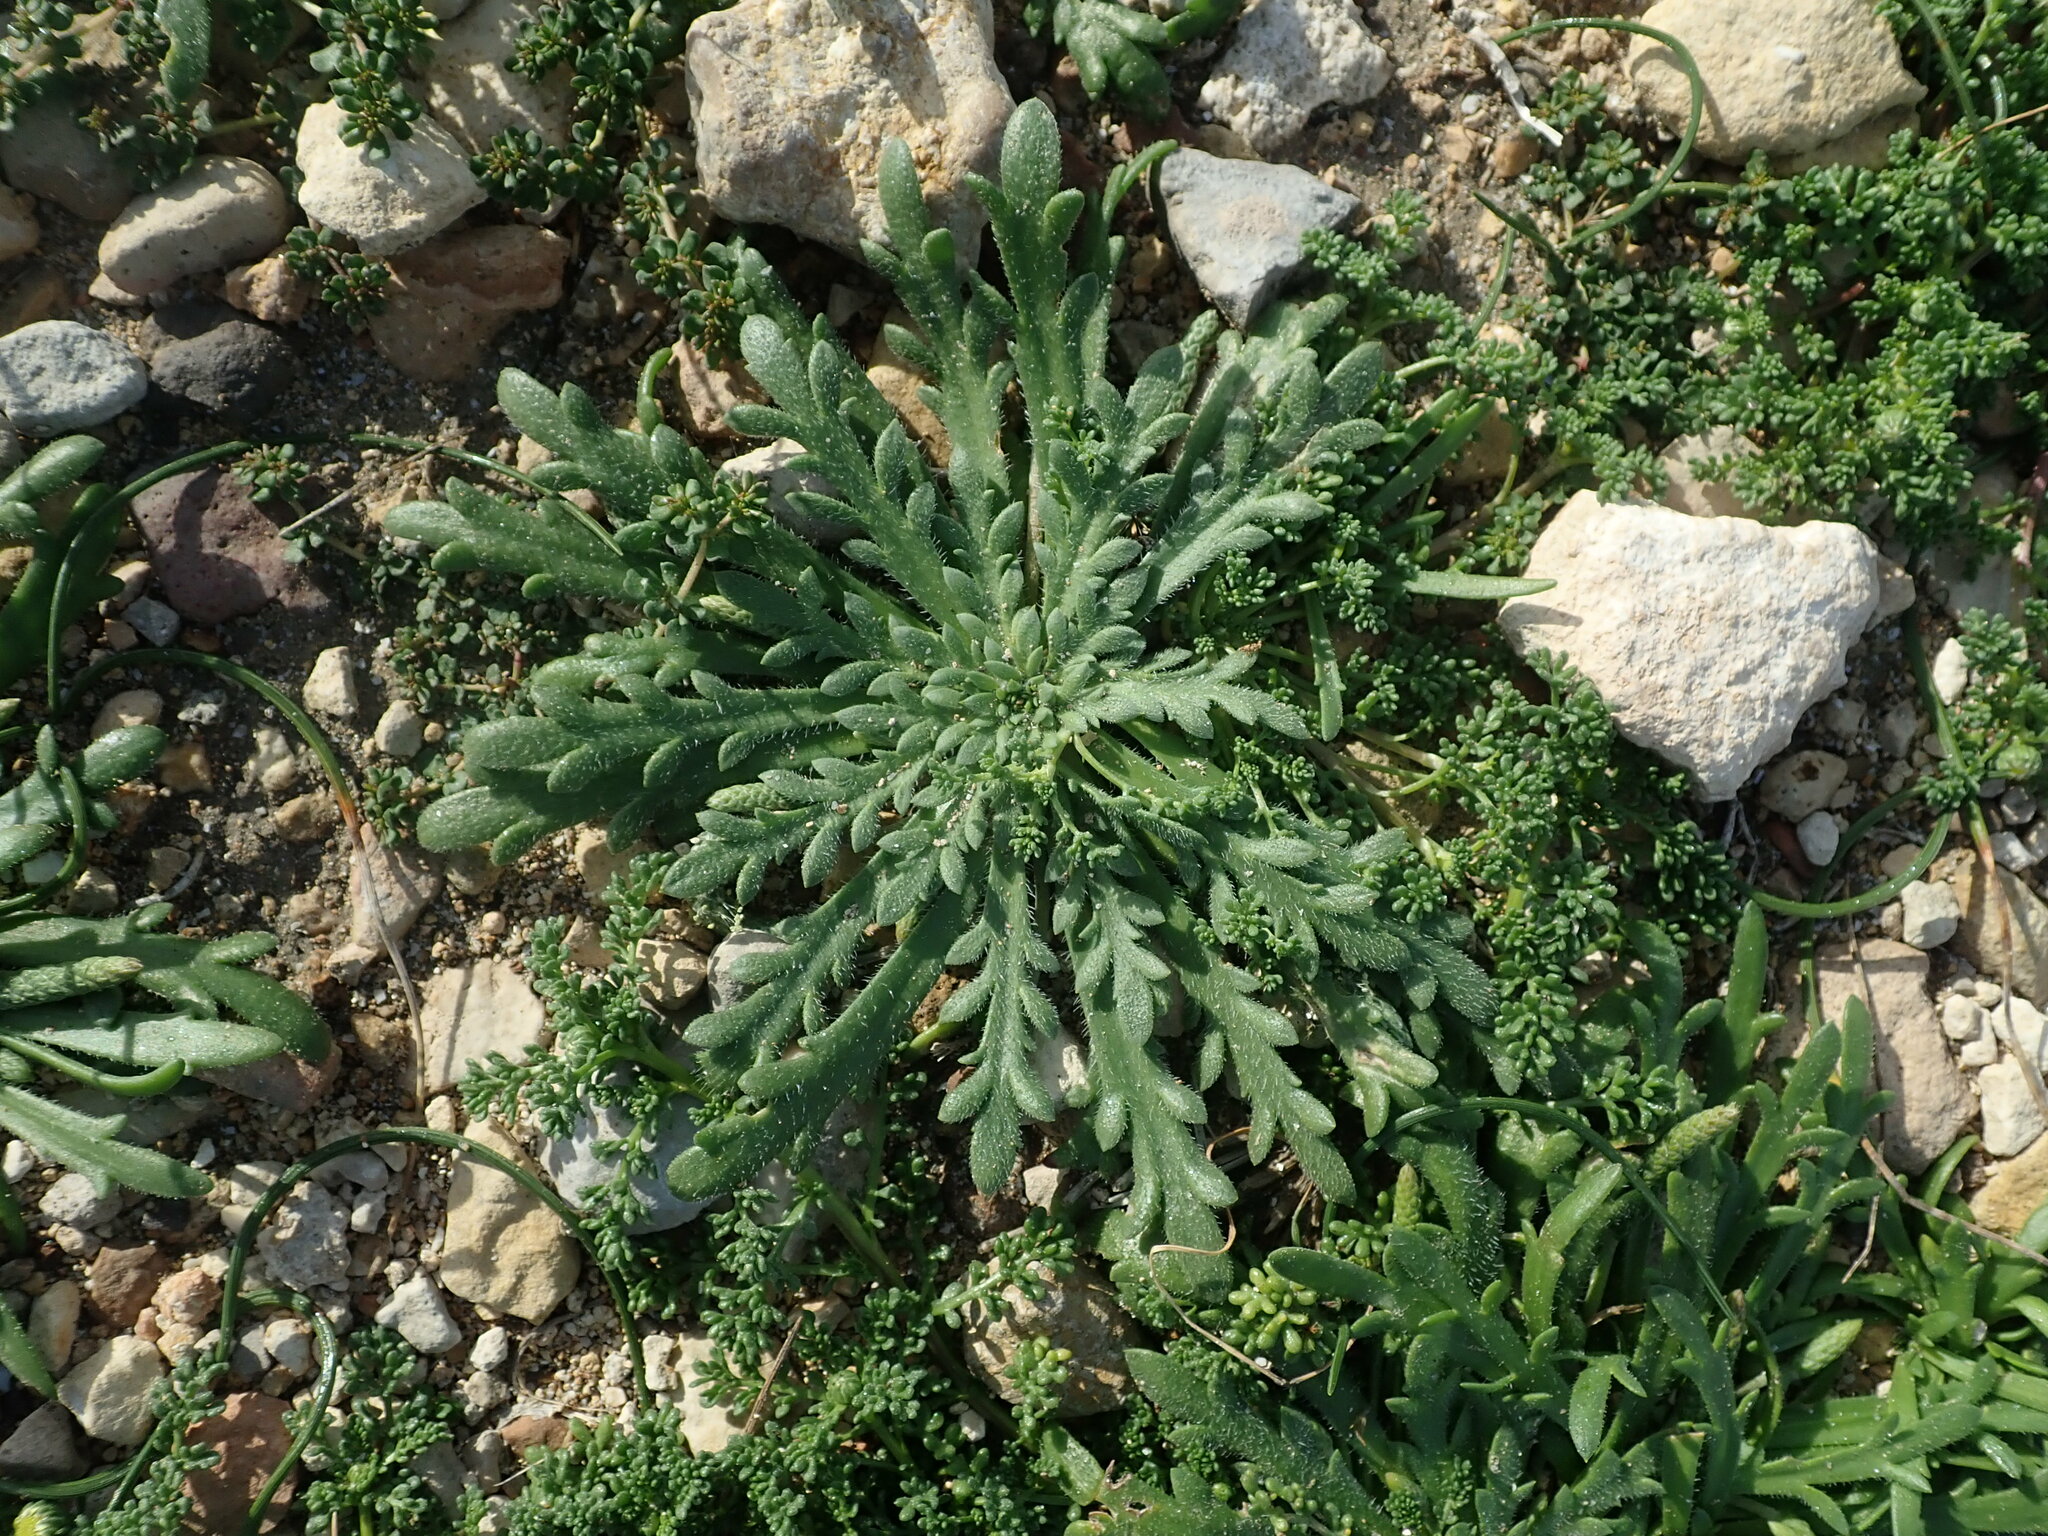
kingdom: Plantae
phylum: Tracheophyta
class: Magnoliopsida
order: Lamiales
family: Plantaginaceae
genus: Plantago
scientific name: Plantago coronopus
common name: Buck's-horn plantain
